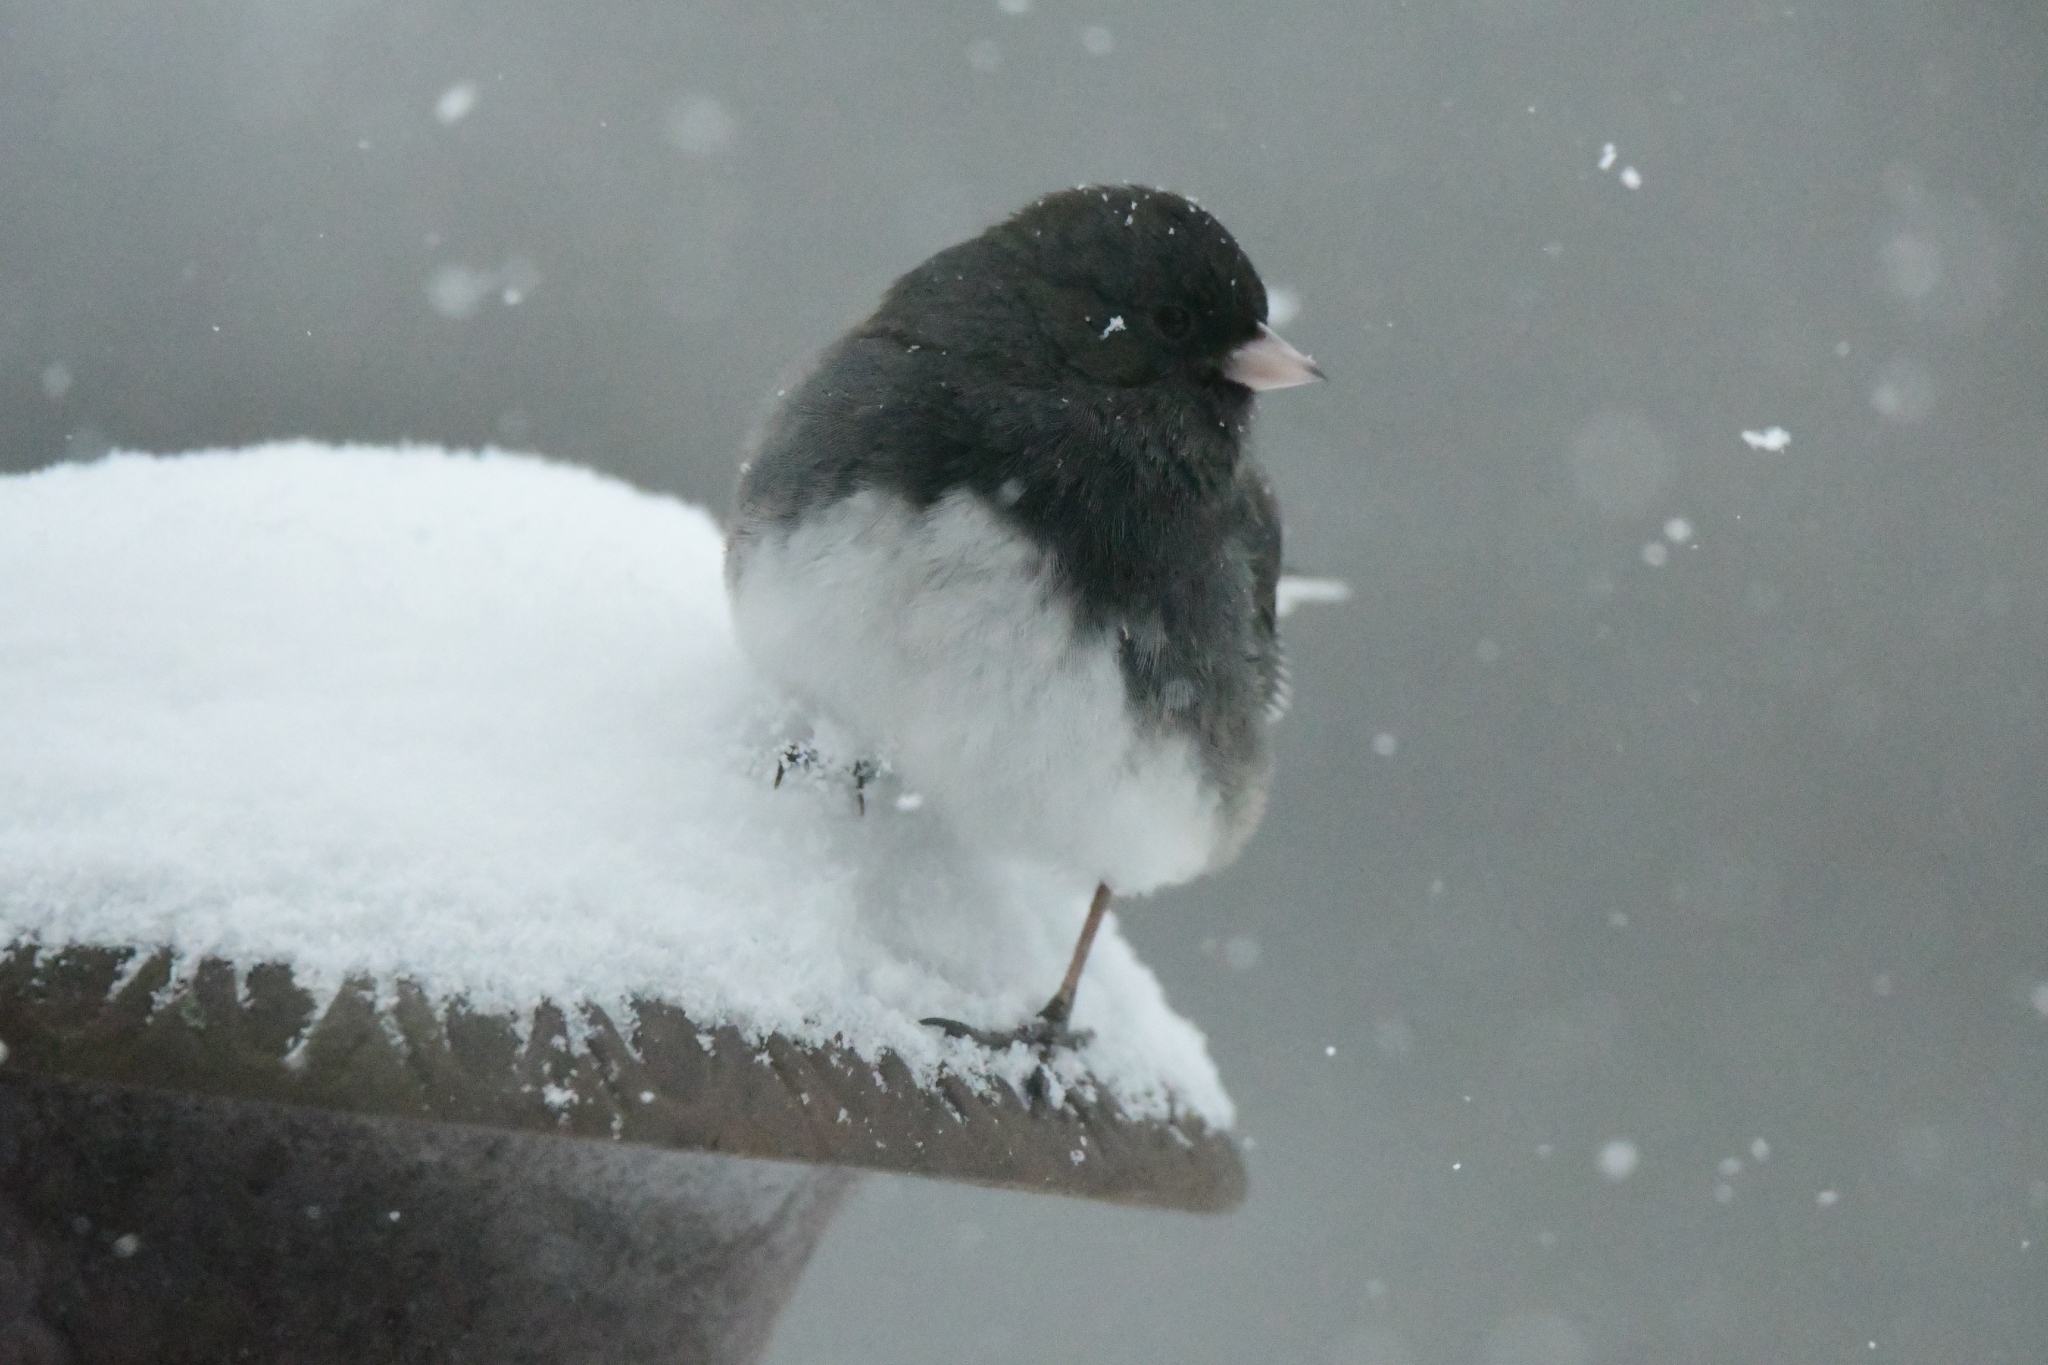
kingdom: Animalia
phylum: Chordata
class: Aves
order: Passeriformes
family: Passerellidae
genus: Junco
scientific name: Junco hyemalis
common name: Dark-eyed junco
